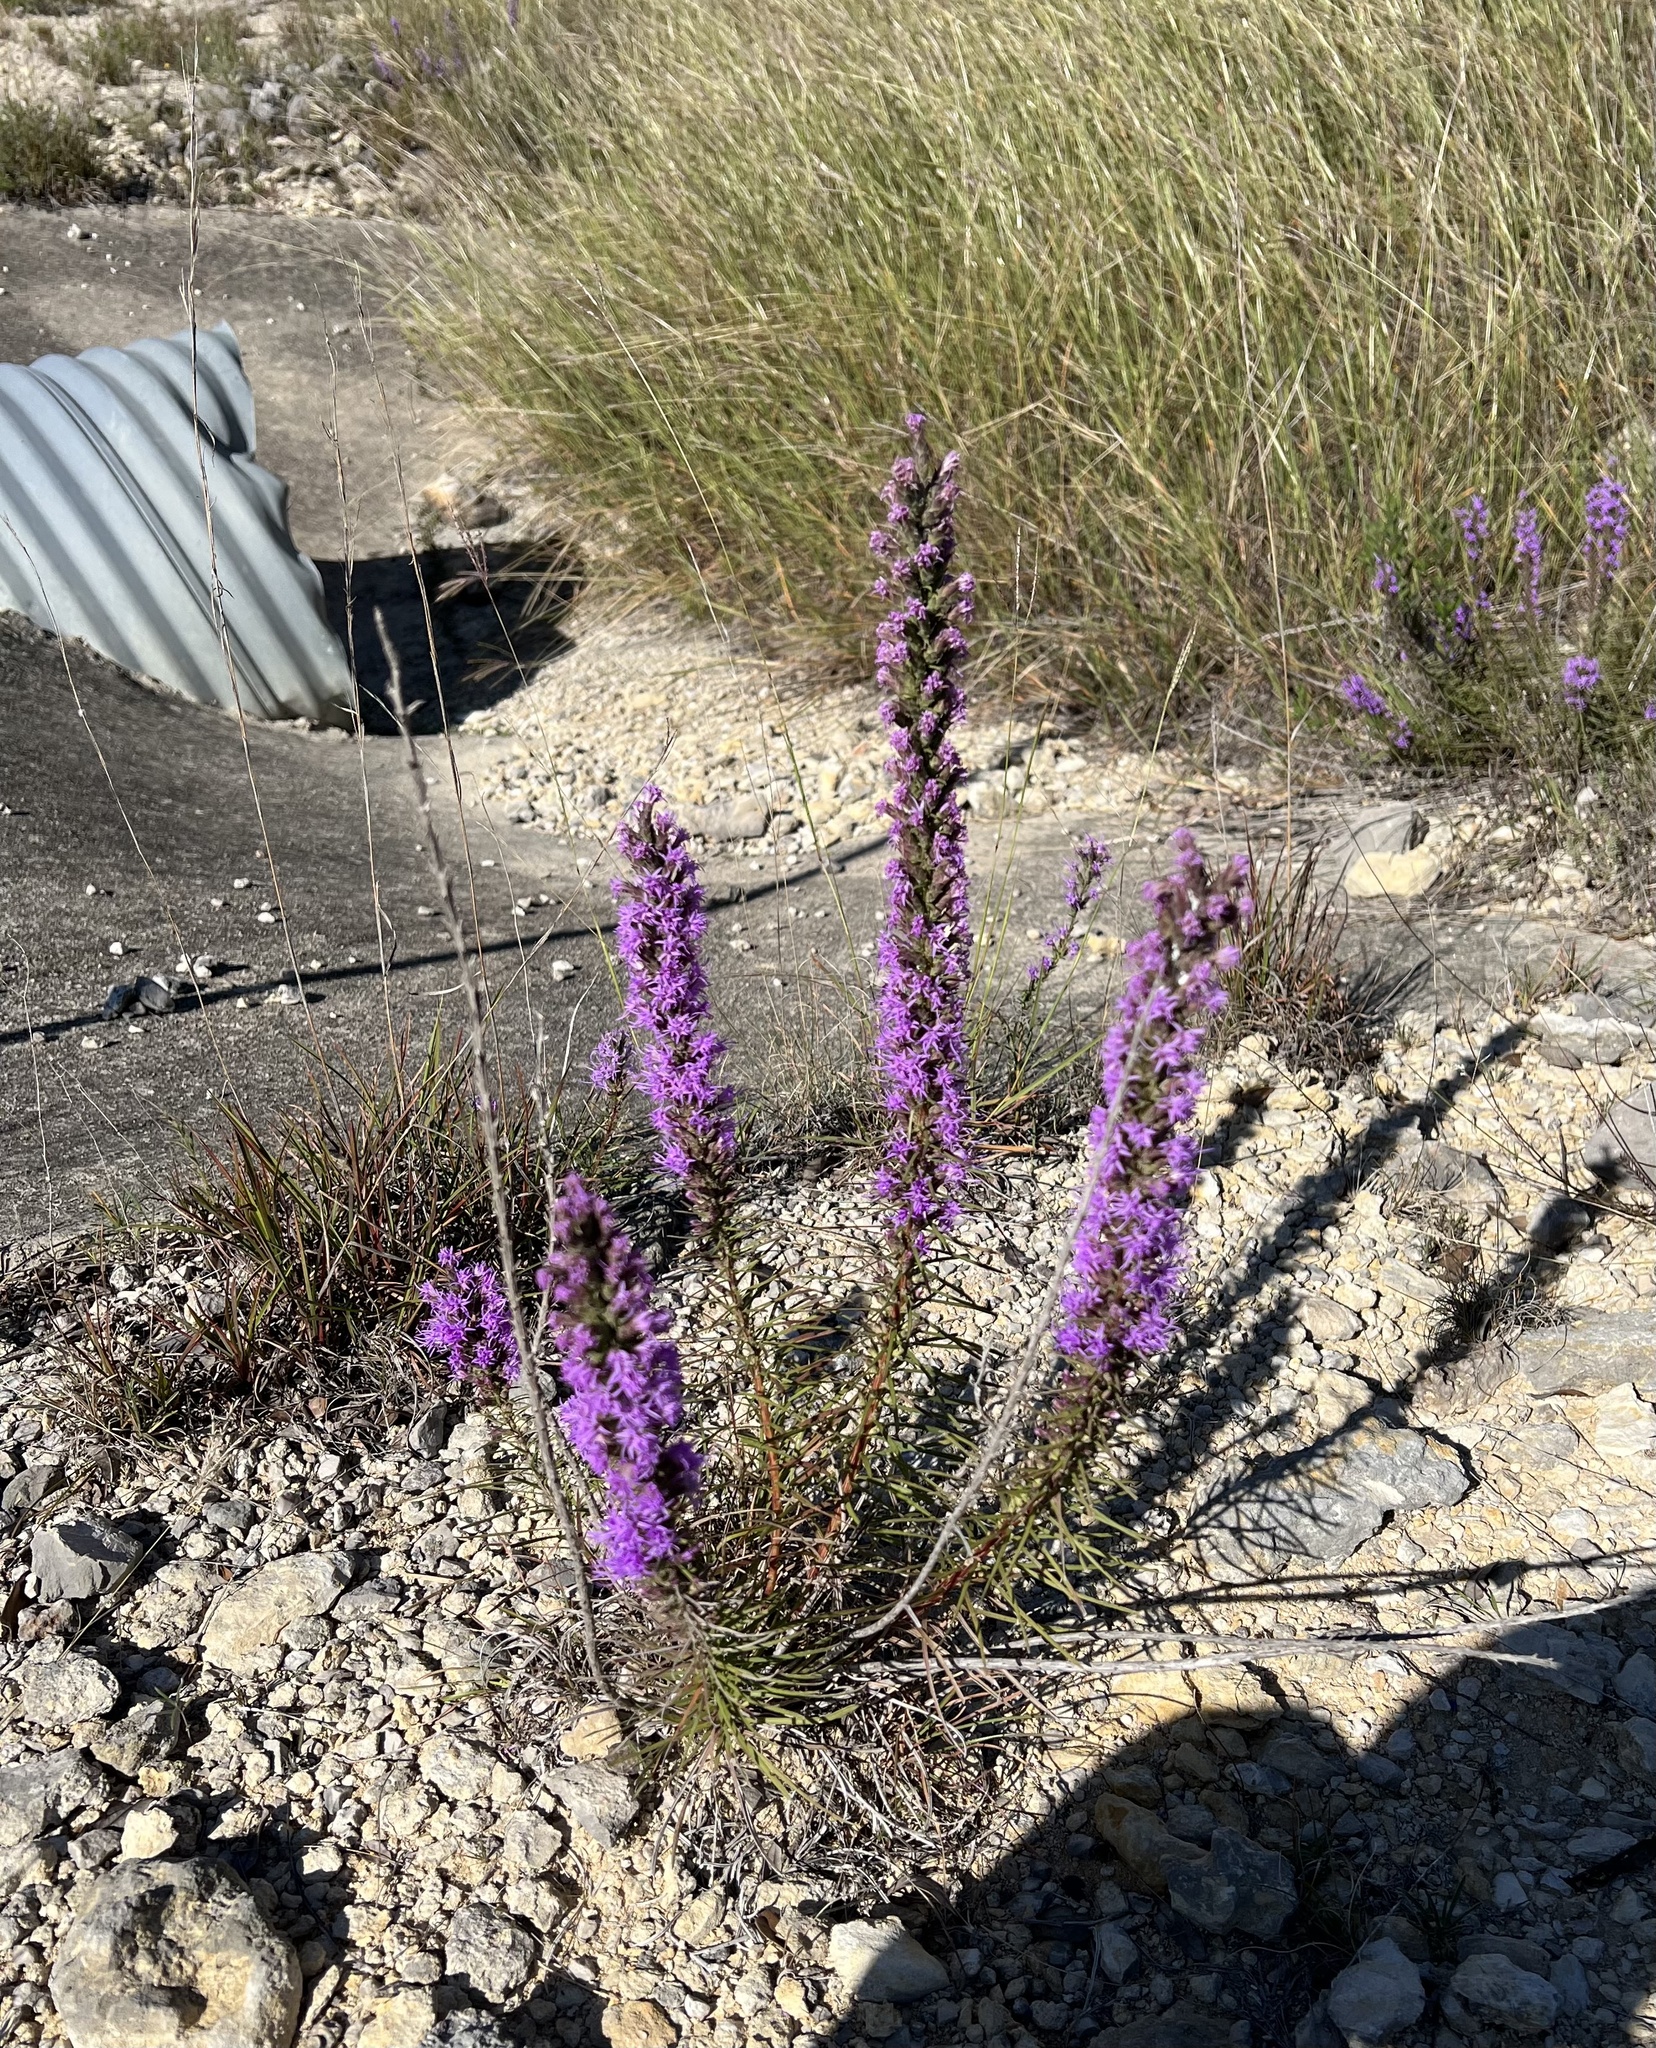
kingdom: Plantae
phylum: Tracheophyta
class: Magnoliopsida
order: Asterales
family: Asteraceae
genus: Liatris
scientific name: Liatris punctata
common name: Dotted gayfeather
